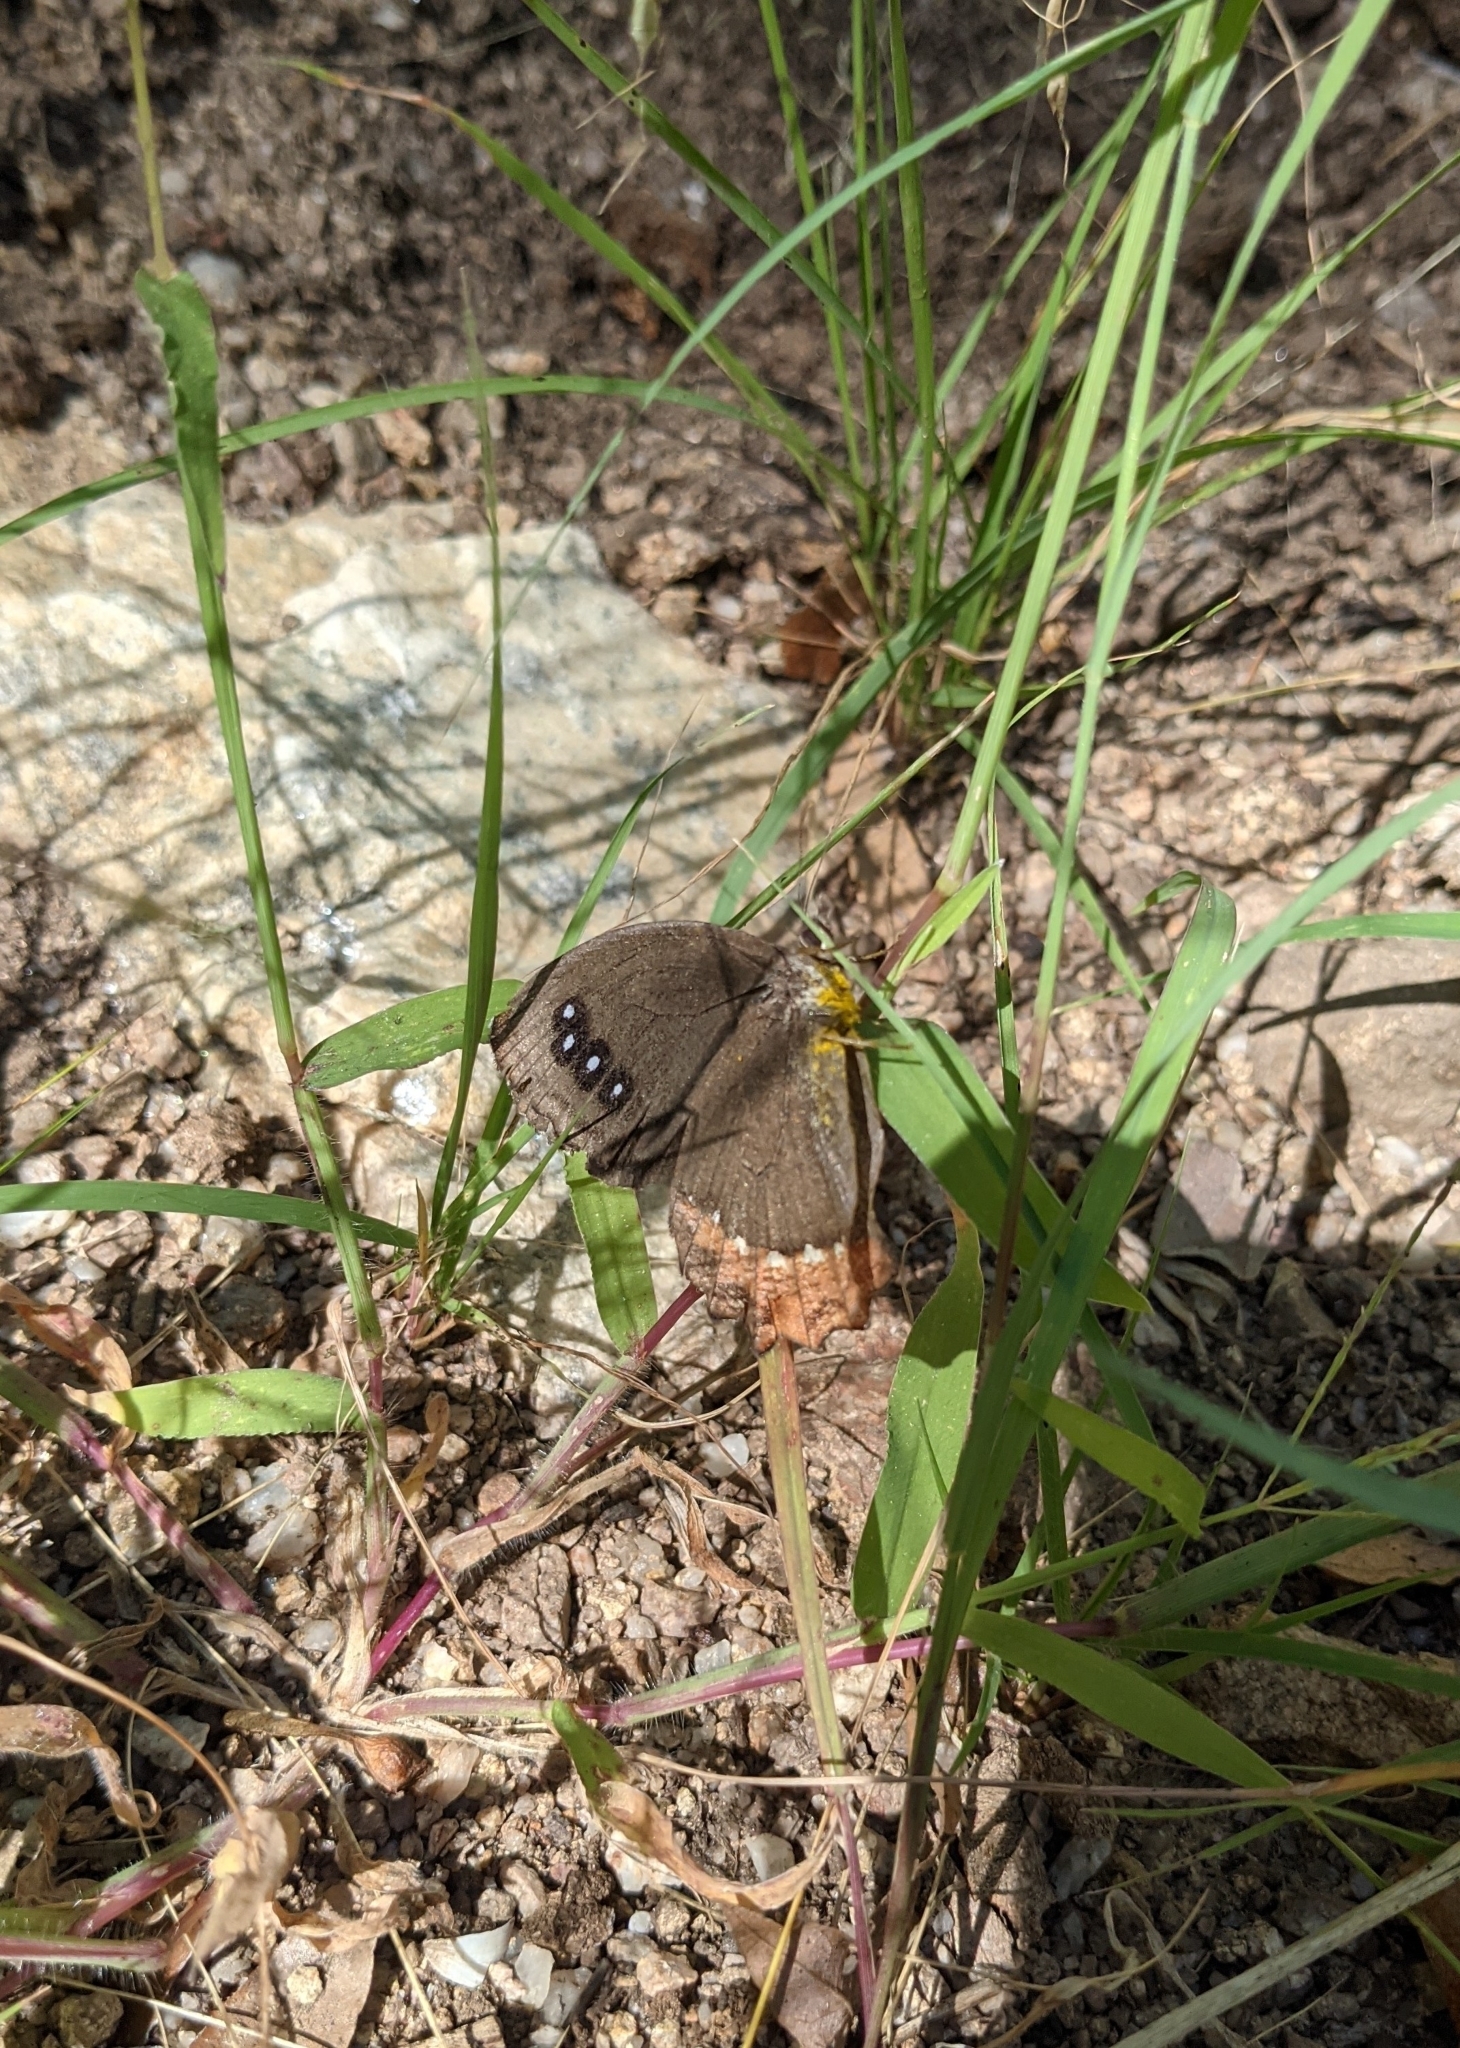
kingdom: Animalia
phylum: Arthropoda
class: Insecta
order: Lepidoptera
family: Nymphalidae
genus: Gyrocheilus
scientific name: Gyrocheilus patrobas
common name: Red-bordered satyr
